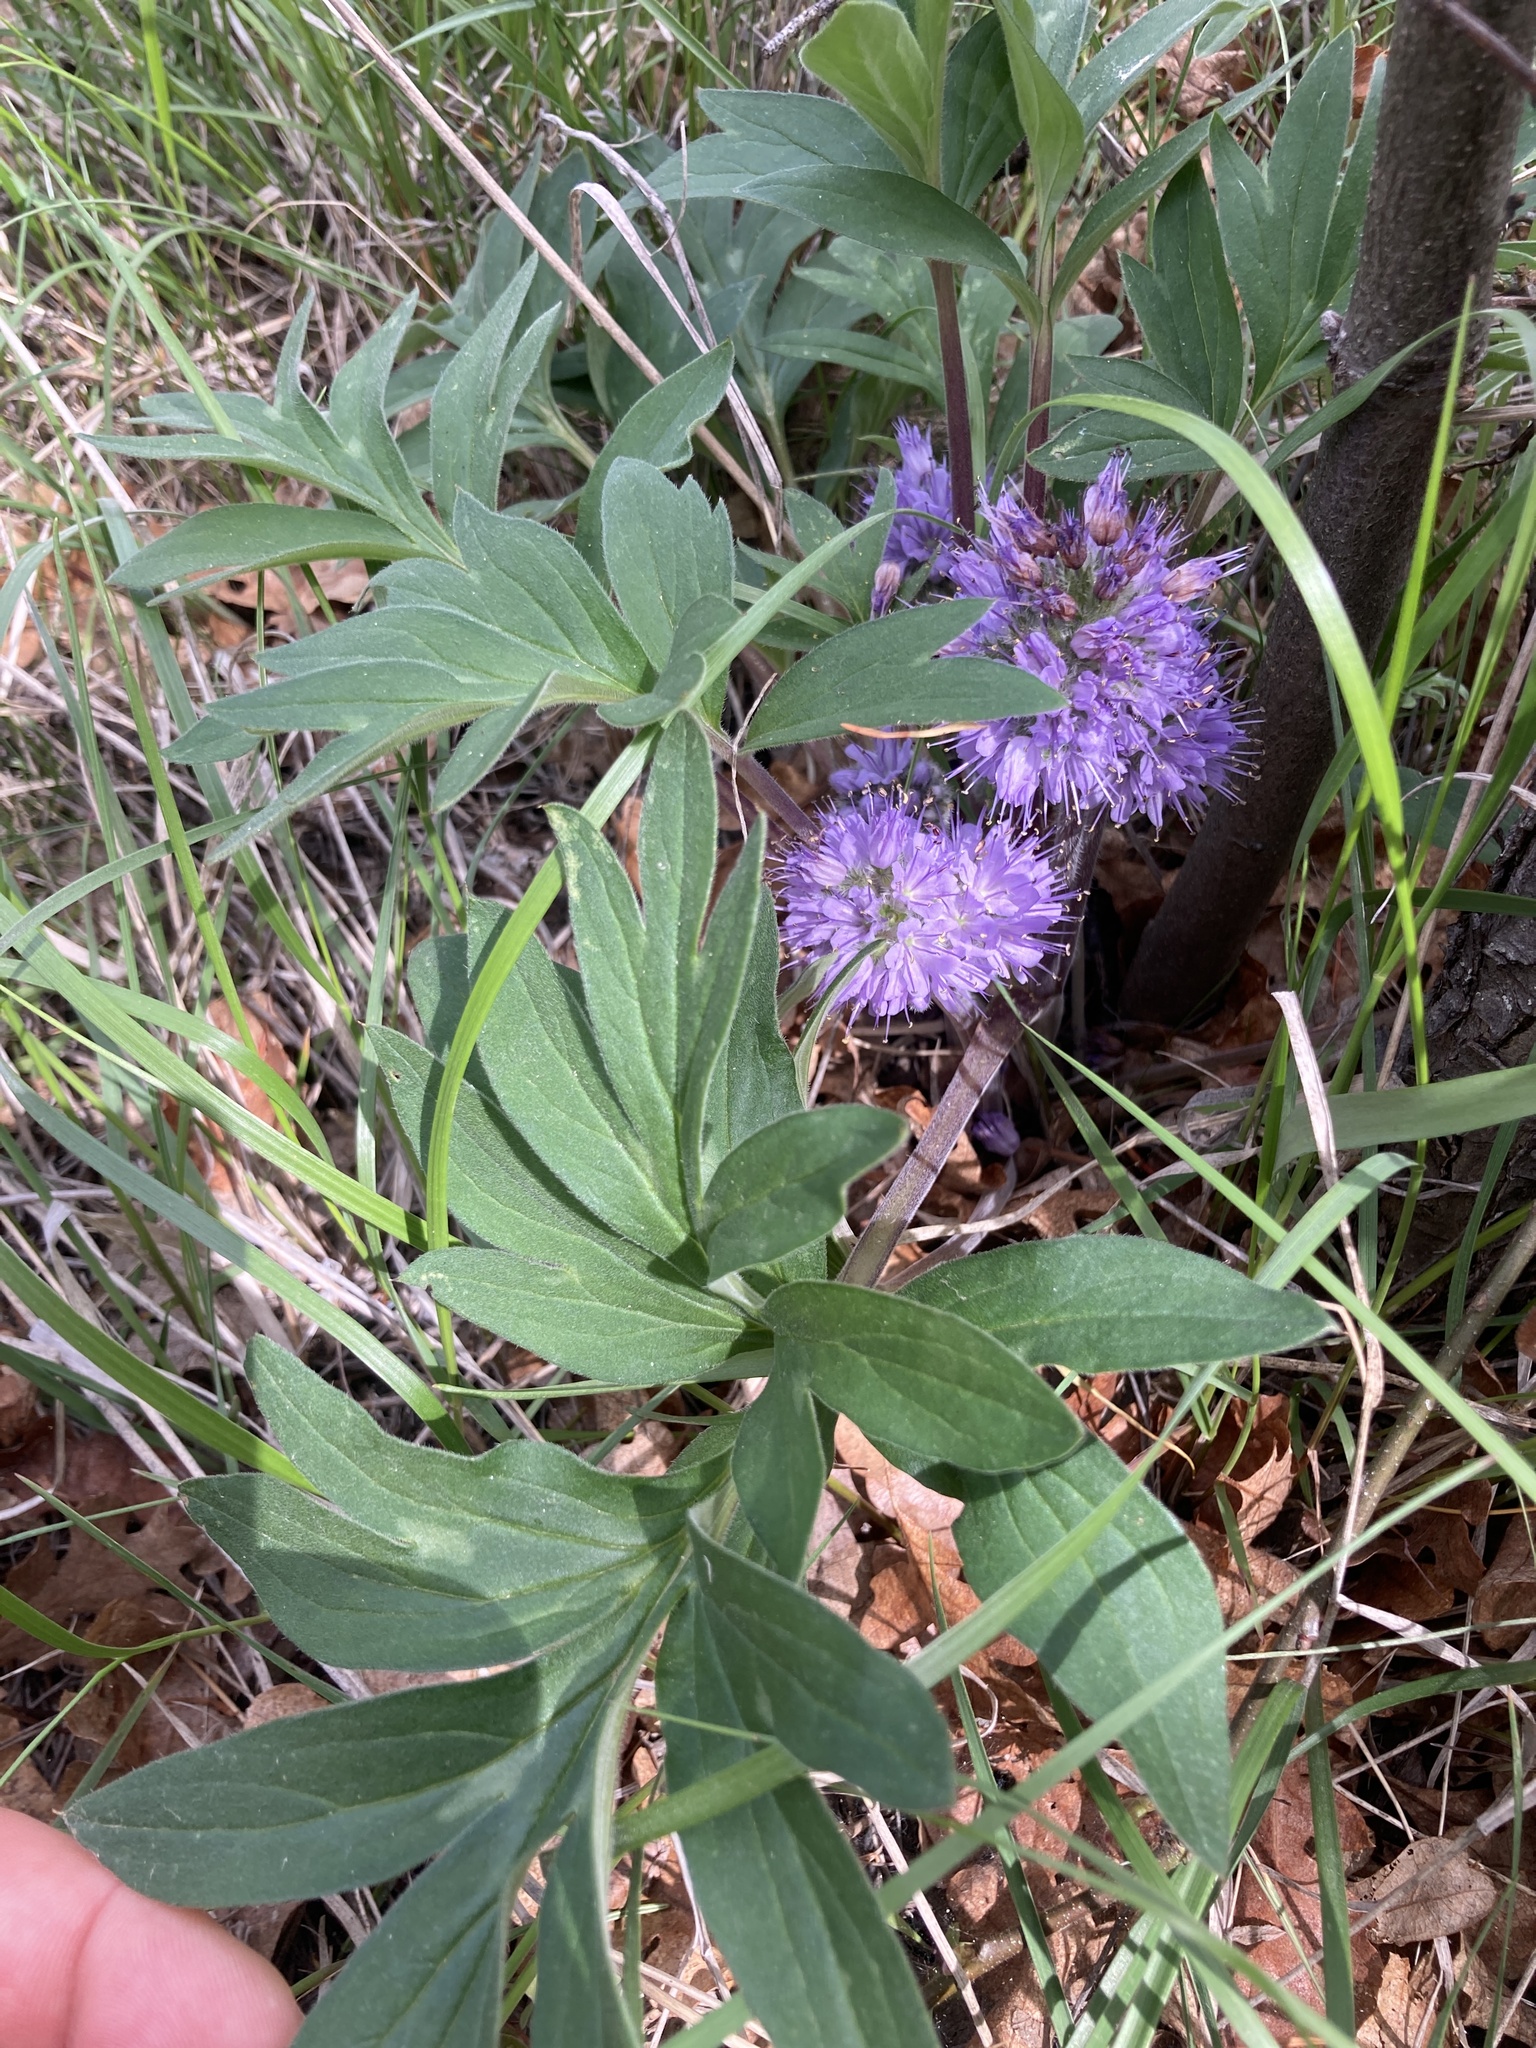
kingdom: Plantae
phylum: Tracheophyta
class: Magnoliopsida
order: Boraginales
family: Hydrophyllaceae
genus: Hydrophyllum
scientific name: Hydrophyllum capitatum
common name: Woollen-breeches
